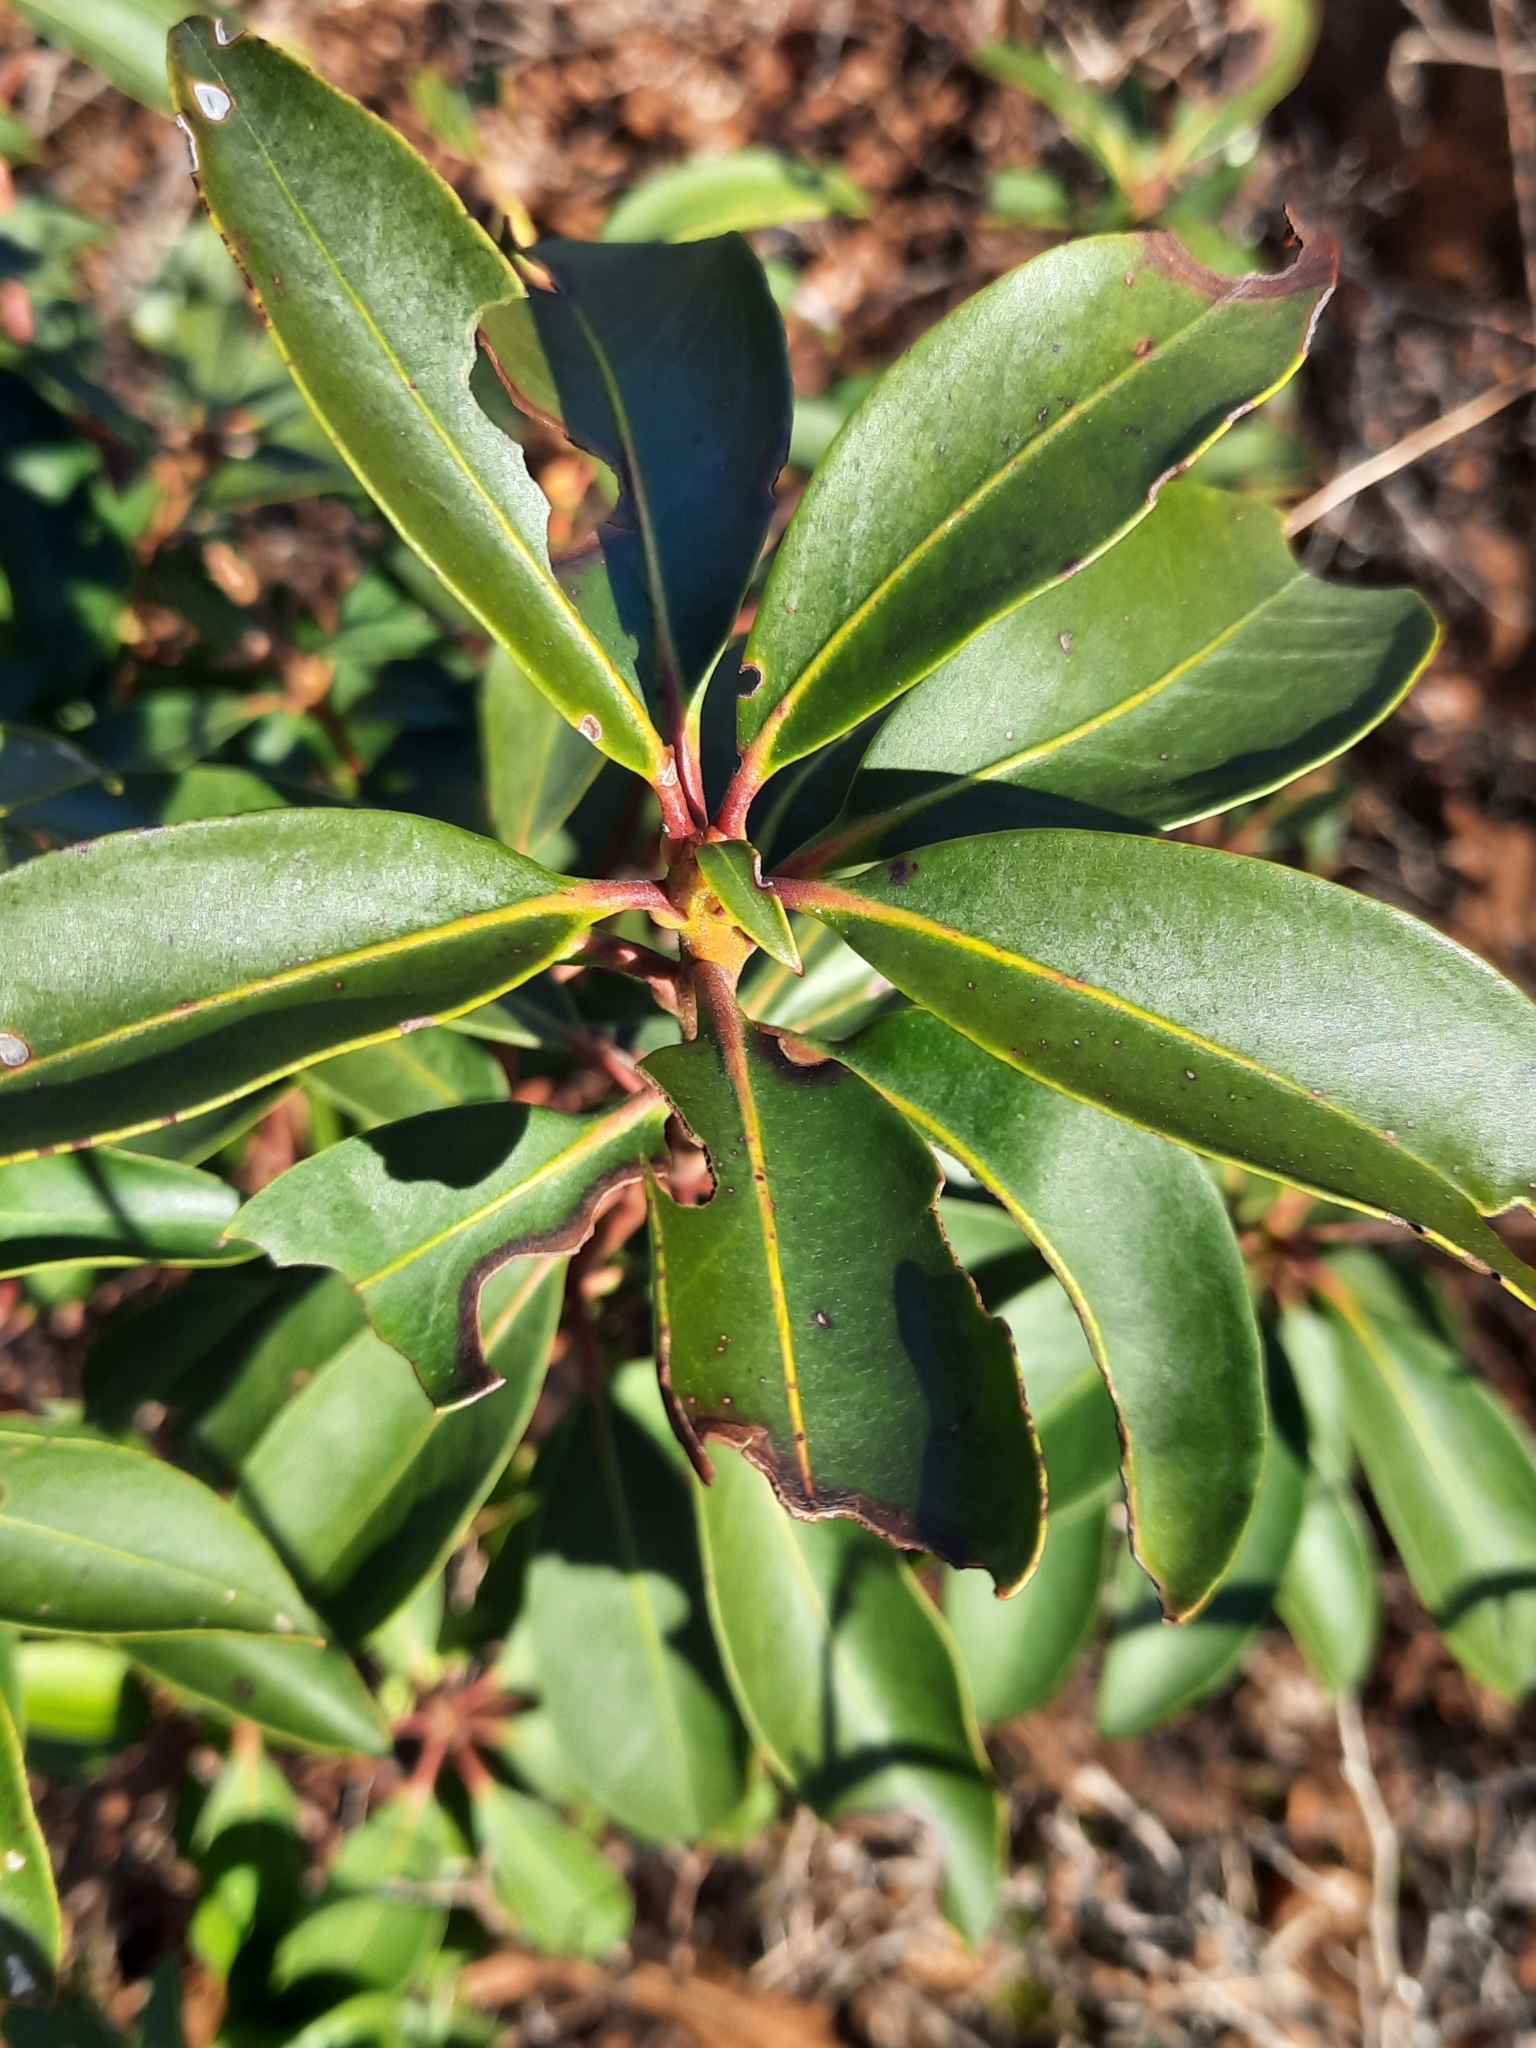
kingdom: Plantae
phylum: Tracheophyta
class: Magnoliopsida
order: Ericales
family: Ericaceae
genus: Kalmia
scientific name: Kalmia latifolia
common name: Mountain-laurel
